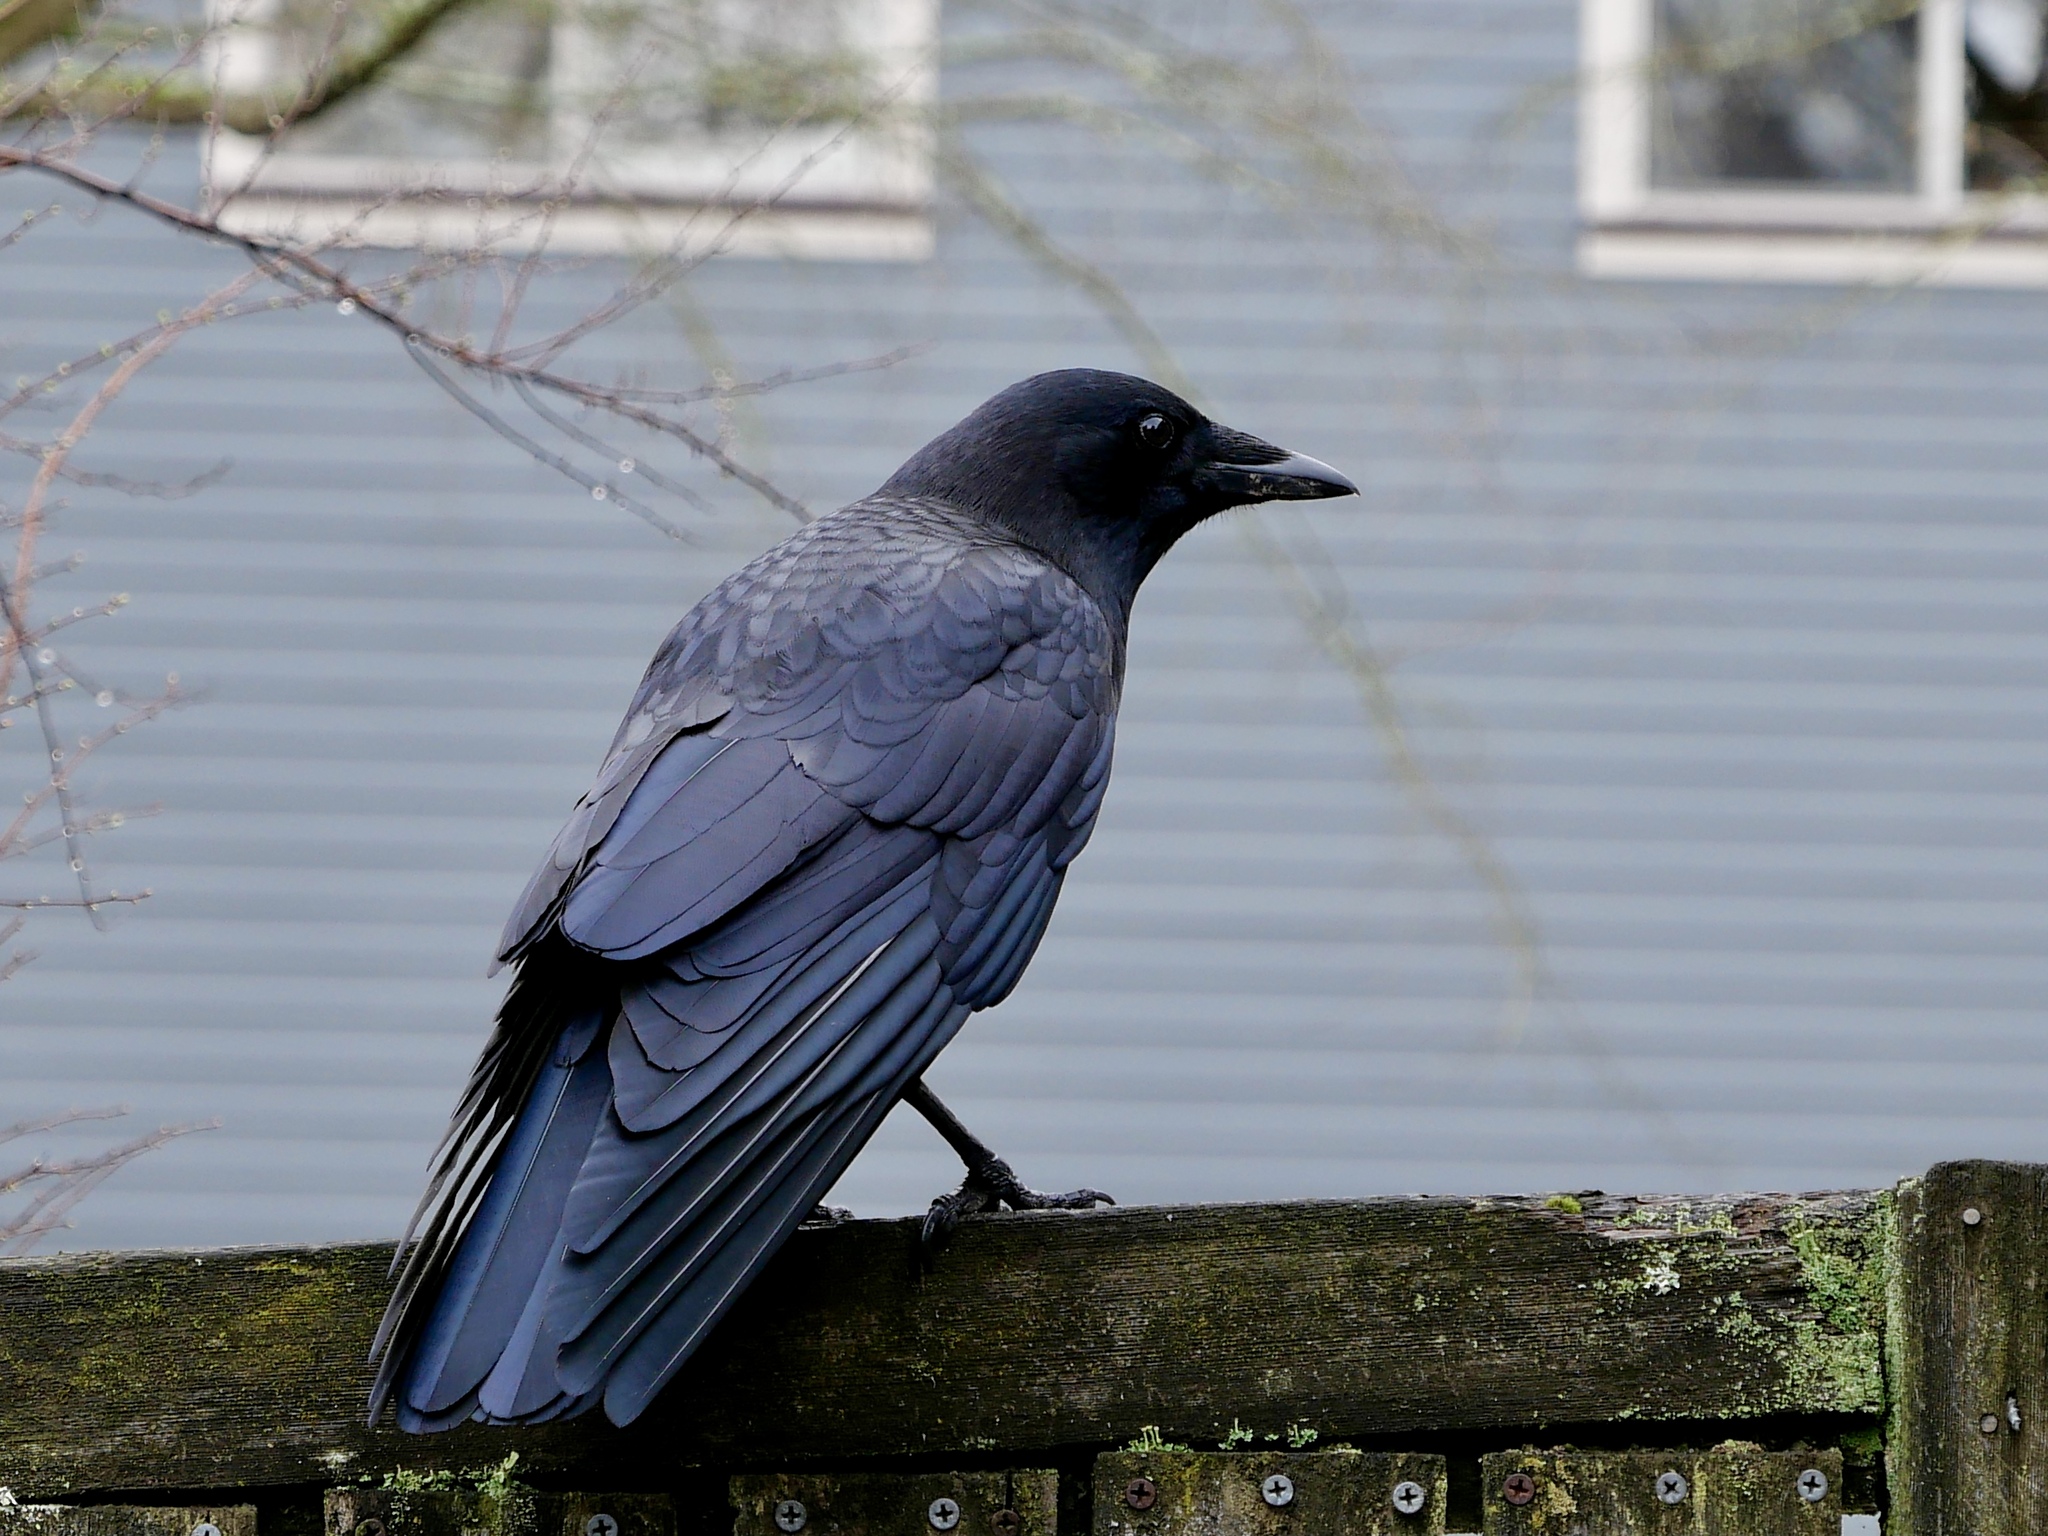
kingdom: Animalia
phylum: Chordata
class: Aves
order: Passeriformes
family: Corvidae
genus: Corvus
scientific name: Corvus brachyrhynchos
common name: American crow
